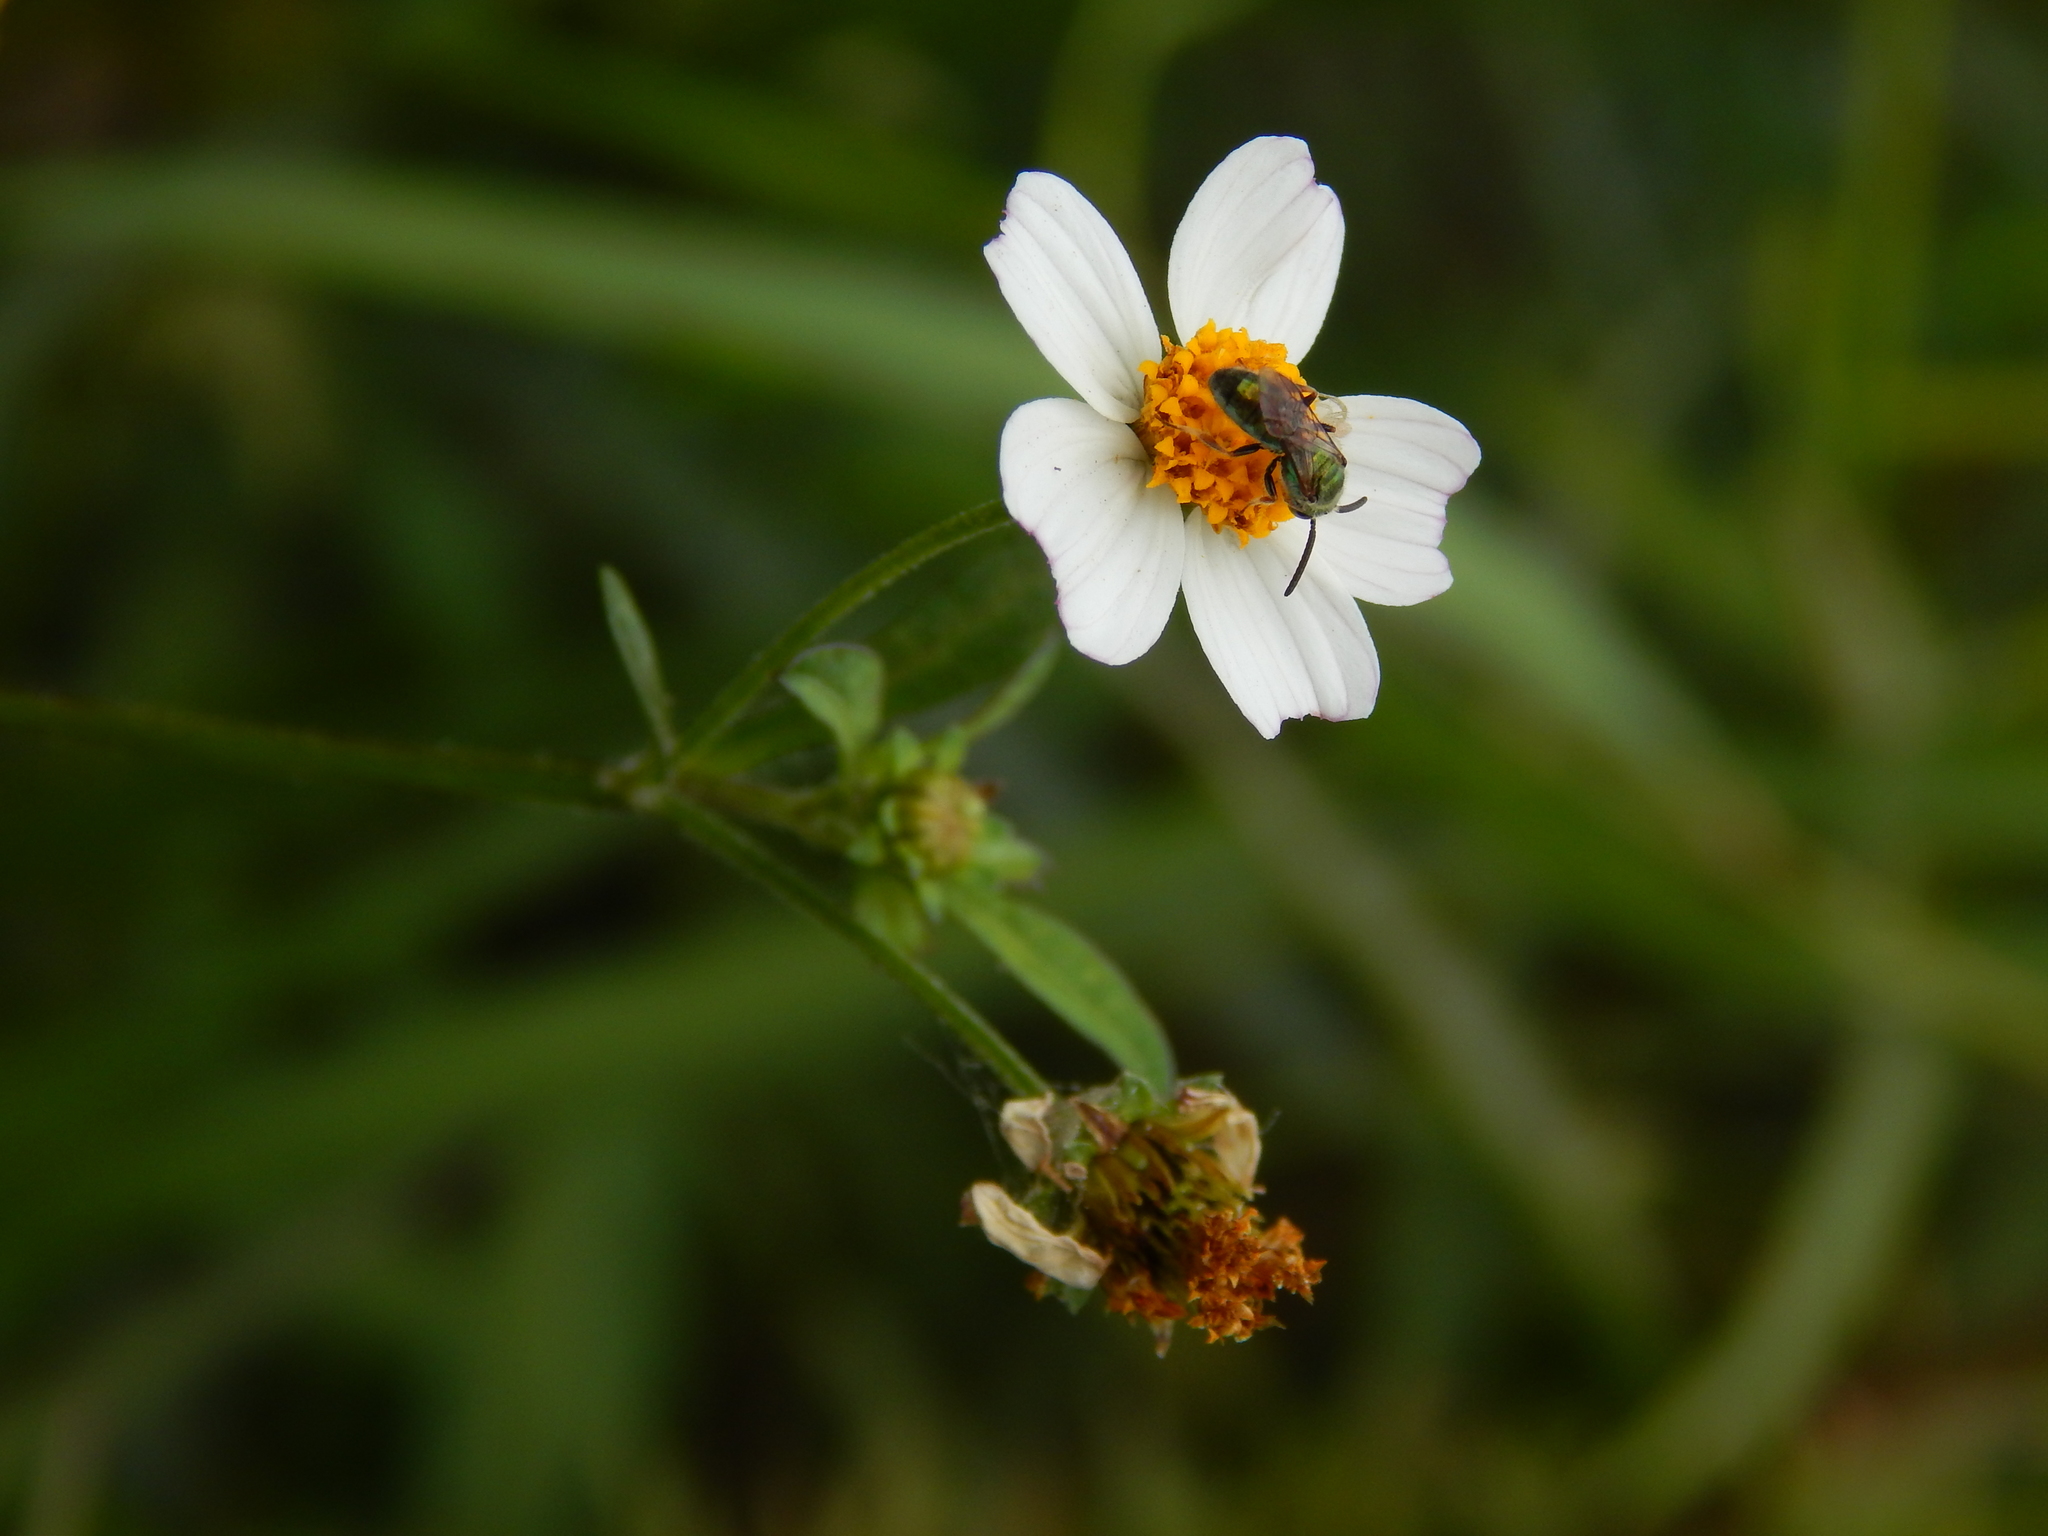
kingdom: Plantae
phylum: Tracheophyta
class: Magnoliopsida
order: Asterales
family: Asteraceae
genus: Bidens
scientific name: Bidens odorata
